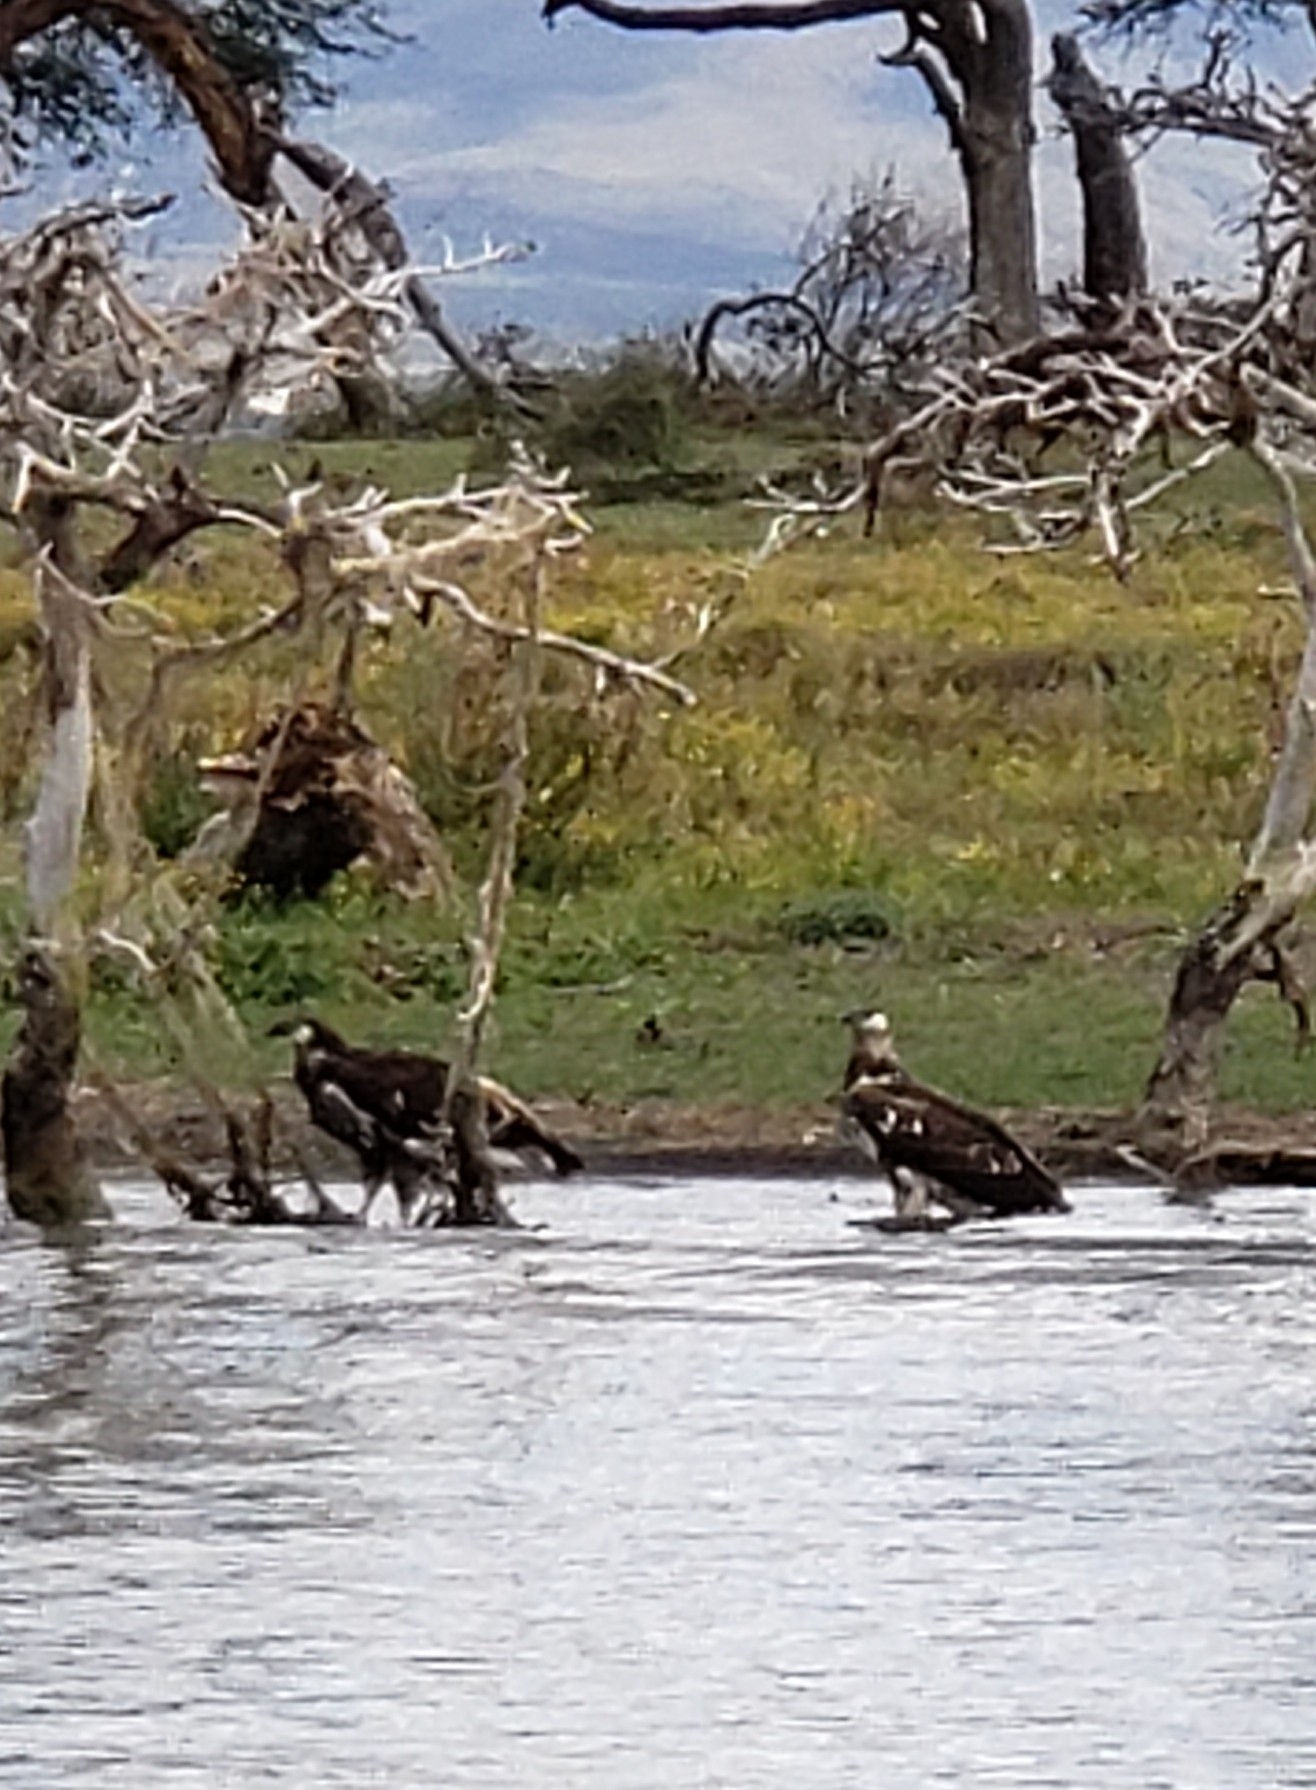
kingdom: Animalia
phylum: Chordata
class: Aves
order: Accipitriformes
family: Accipitridae
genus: Haliaeetus
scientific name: Haliaeetus vocifer
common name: African fish eagle
